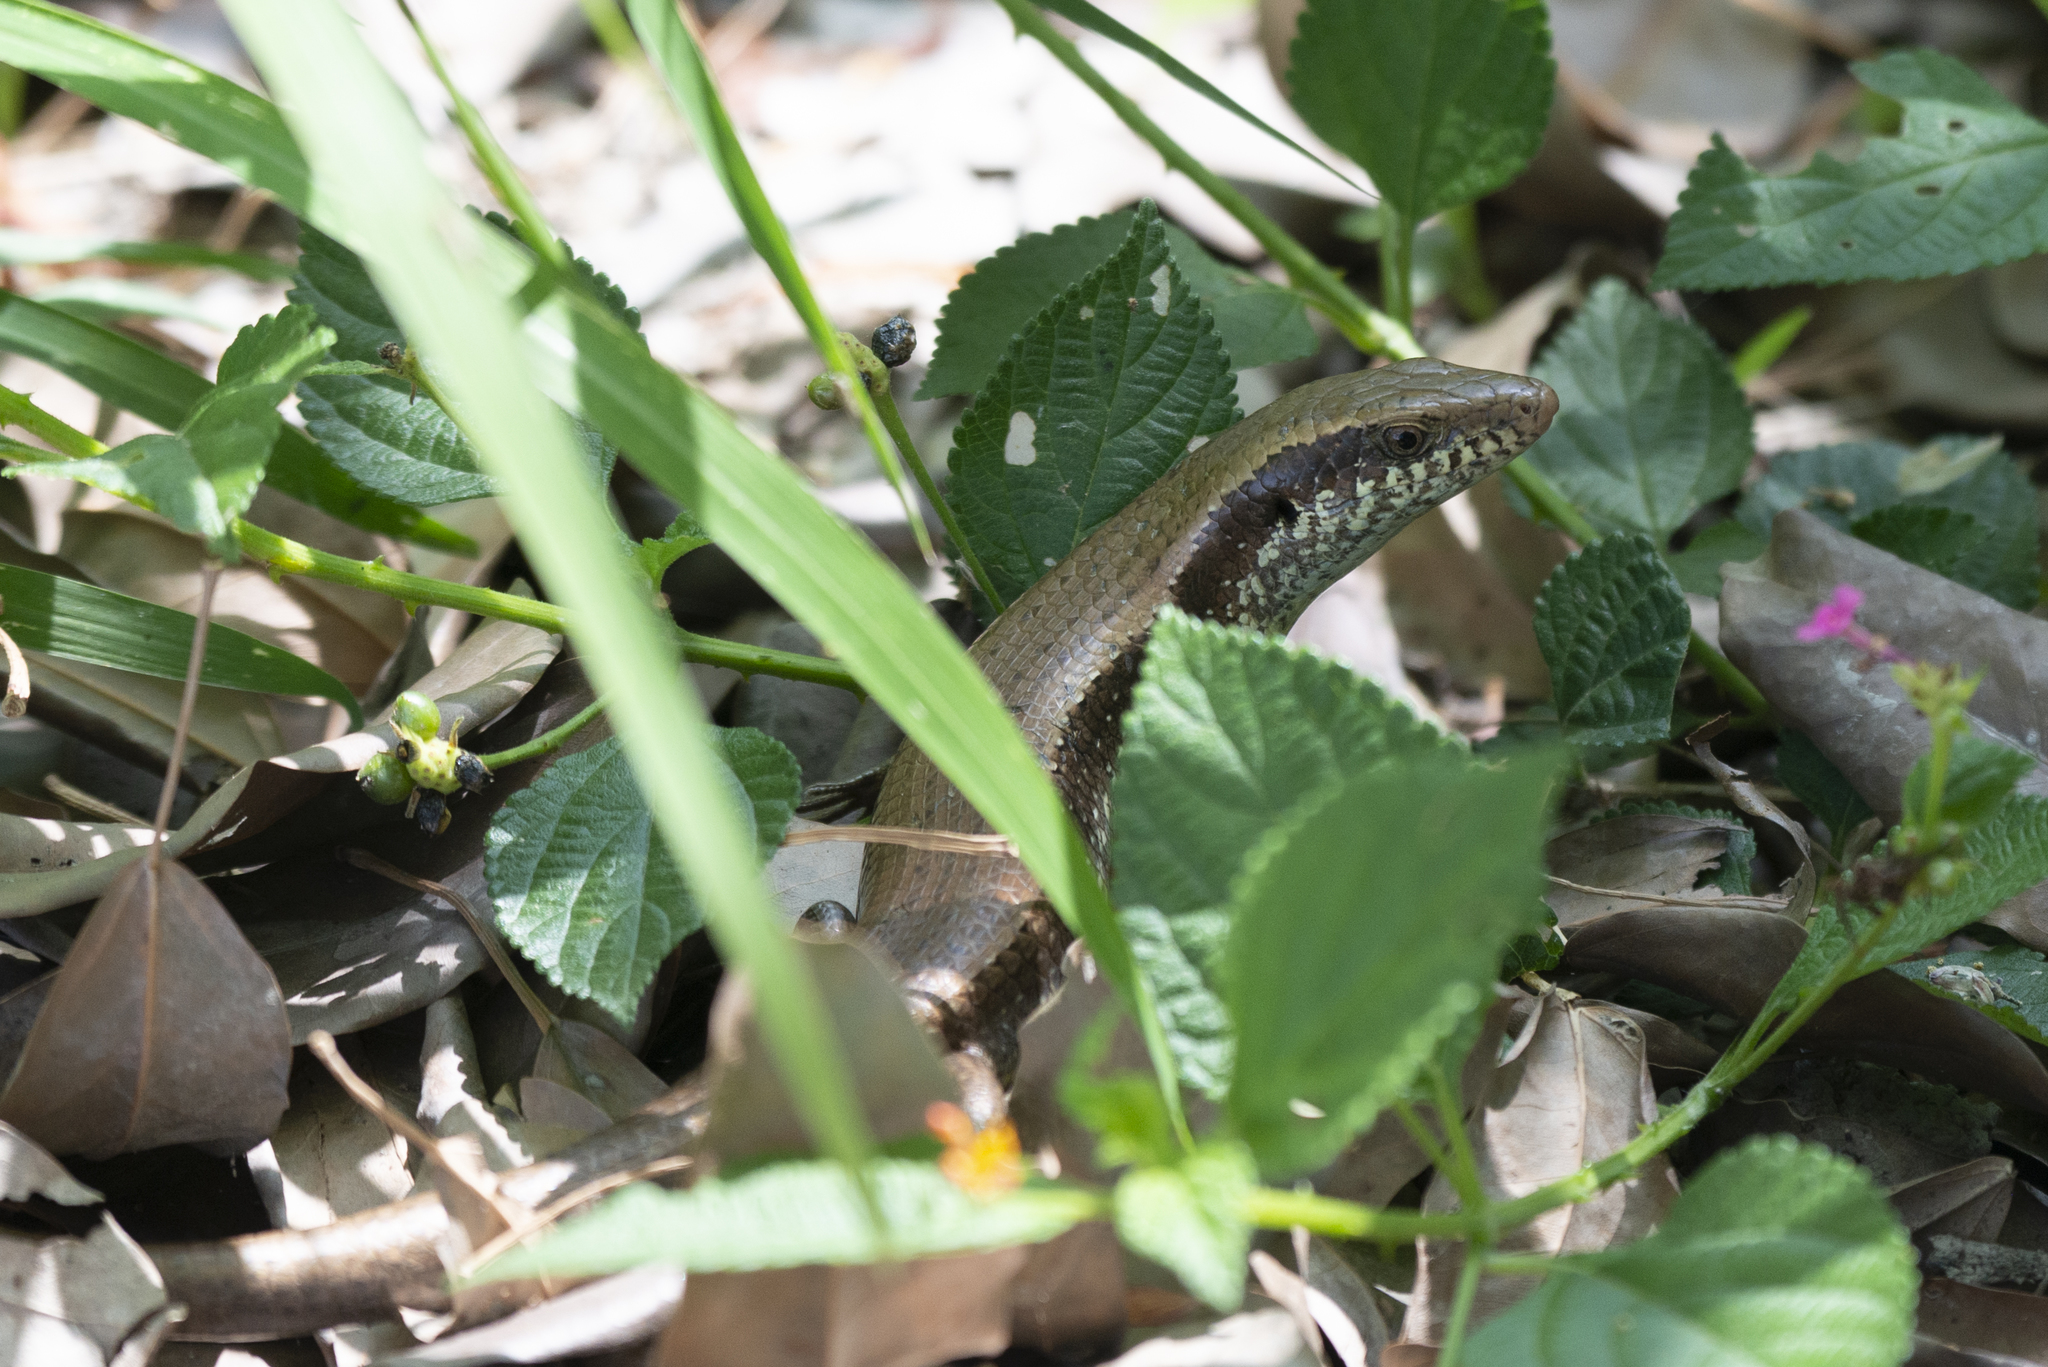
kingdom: Animalia
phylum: Chordata
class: Squamata
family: Scincidae
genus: Eutropis
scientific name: Eutropis longicaudata
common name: Long-tailed sun skink
